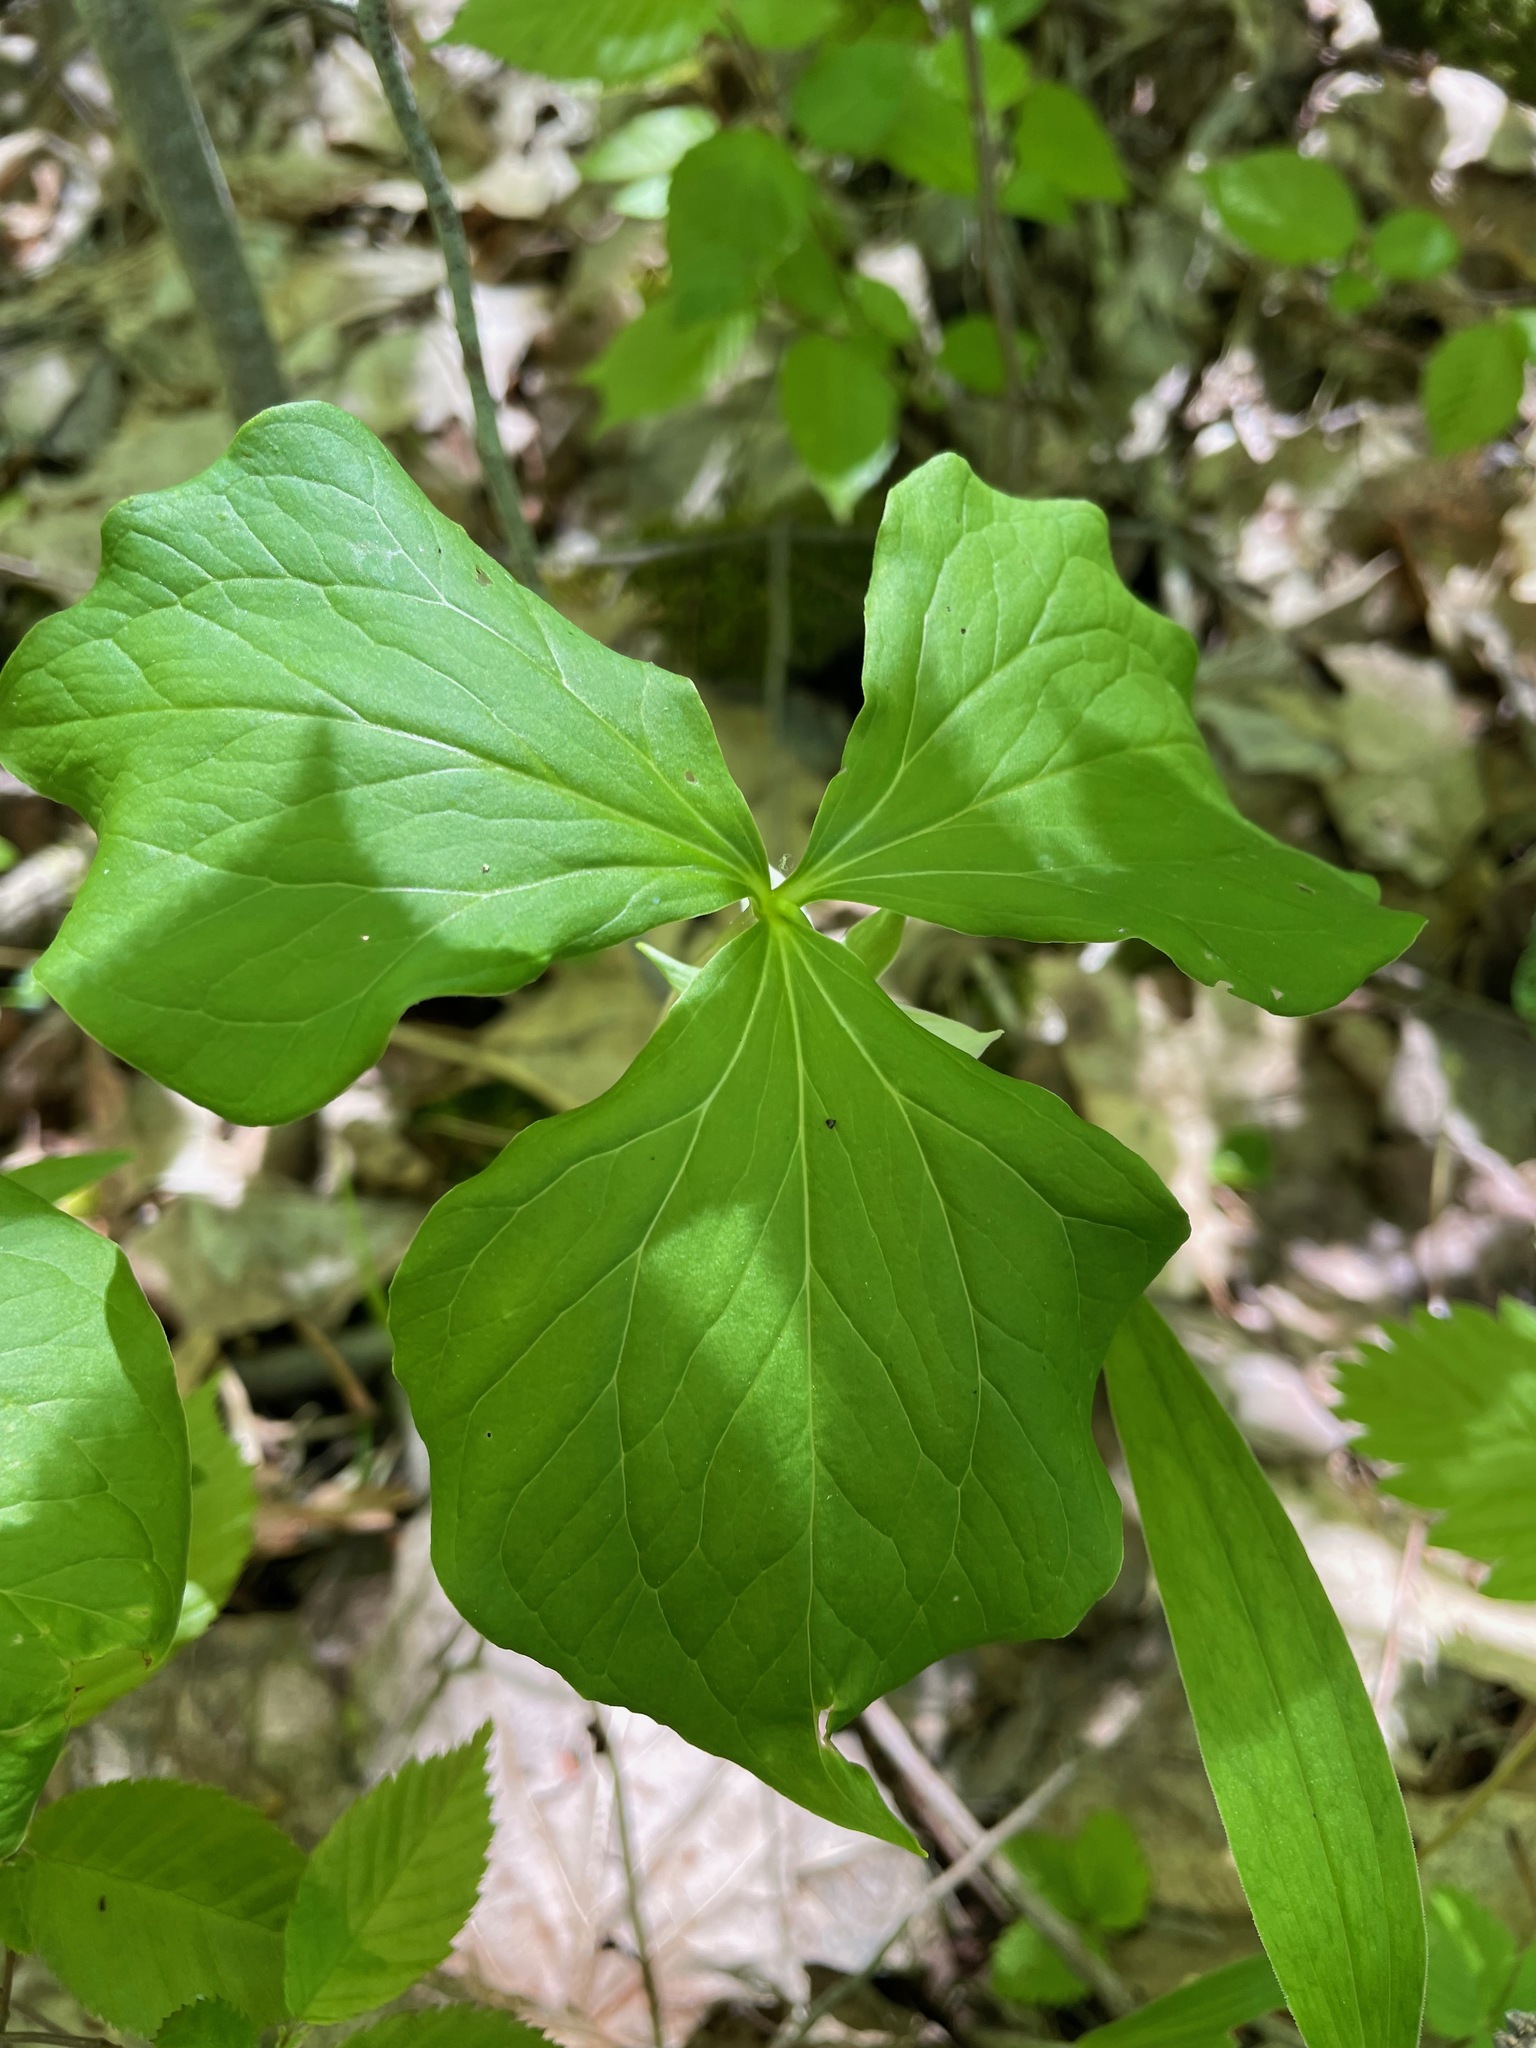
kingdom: Plantae
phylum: Tracheophyta
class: Liliopsida
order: Liliales
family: Melanthiaceae
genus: Trillium
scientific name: Trillium cernuum
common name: Nodding trillium
